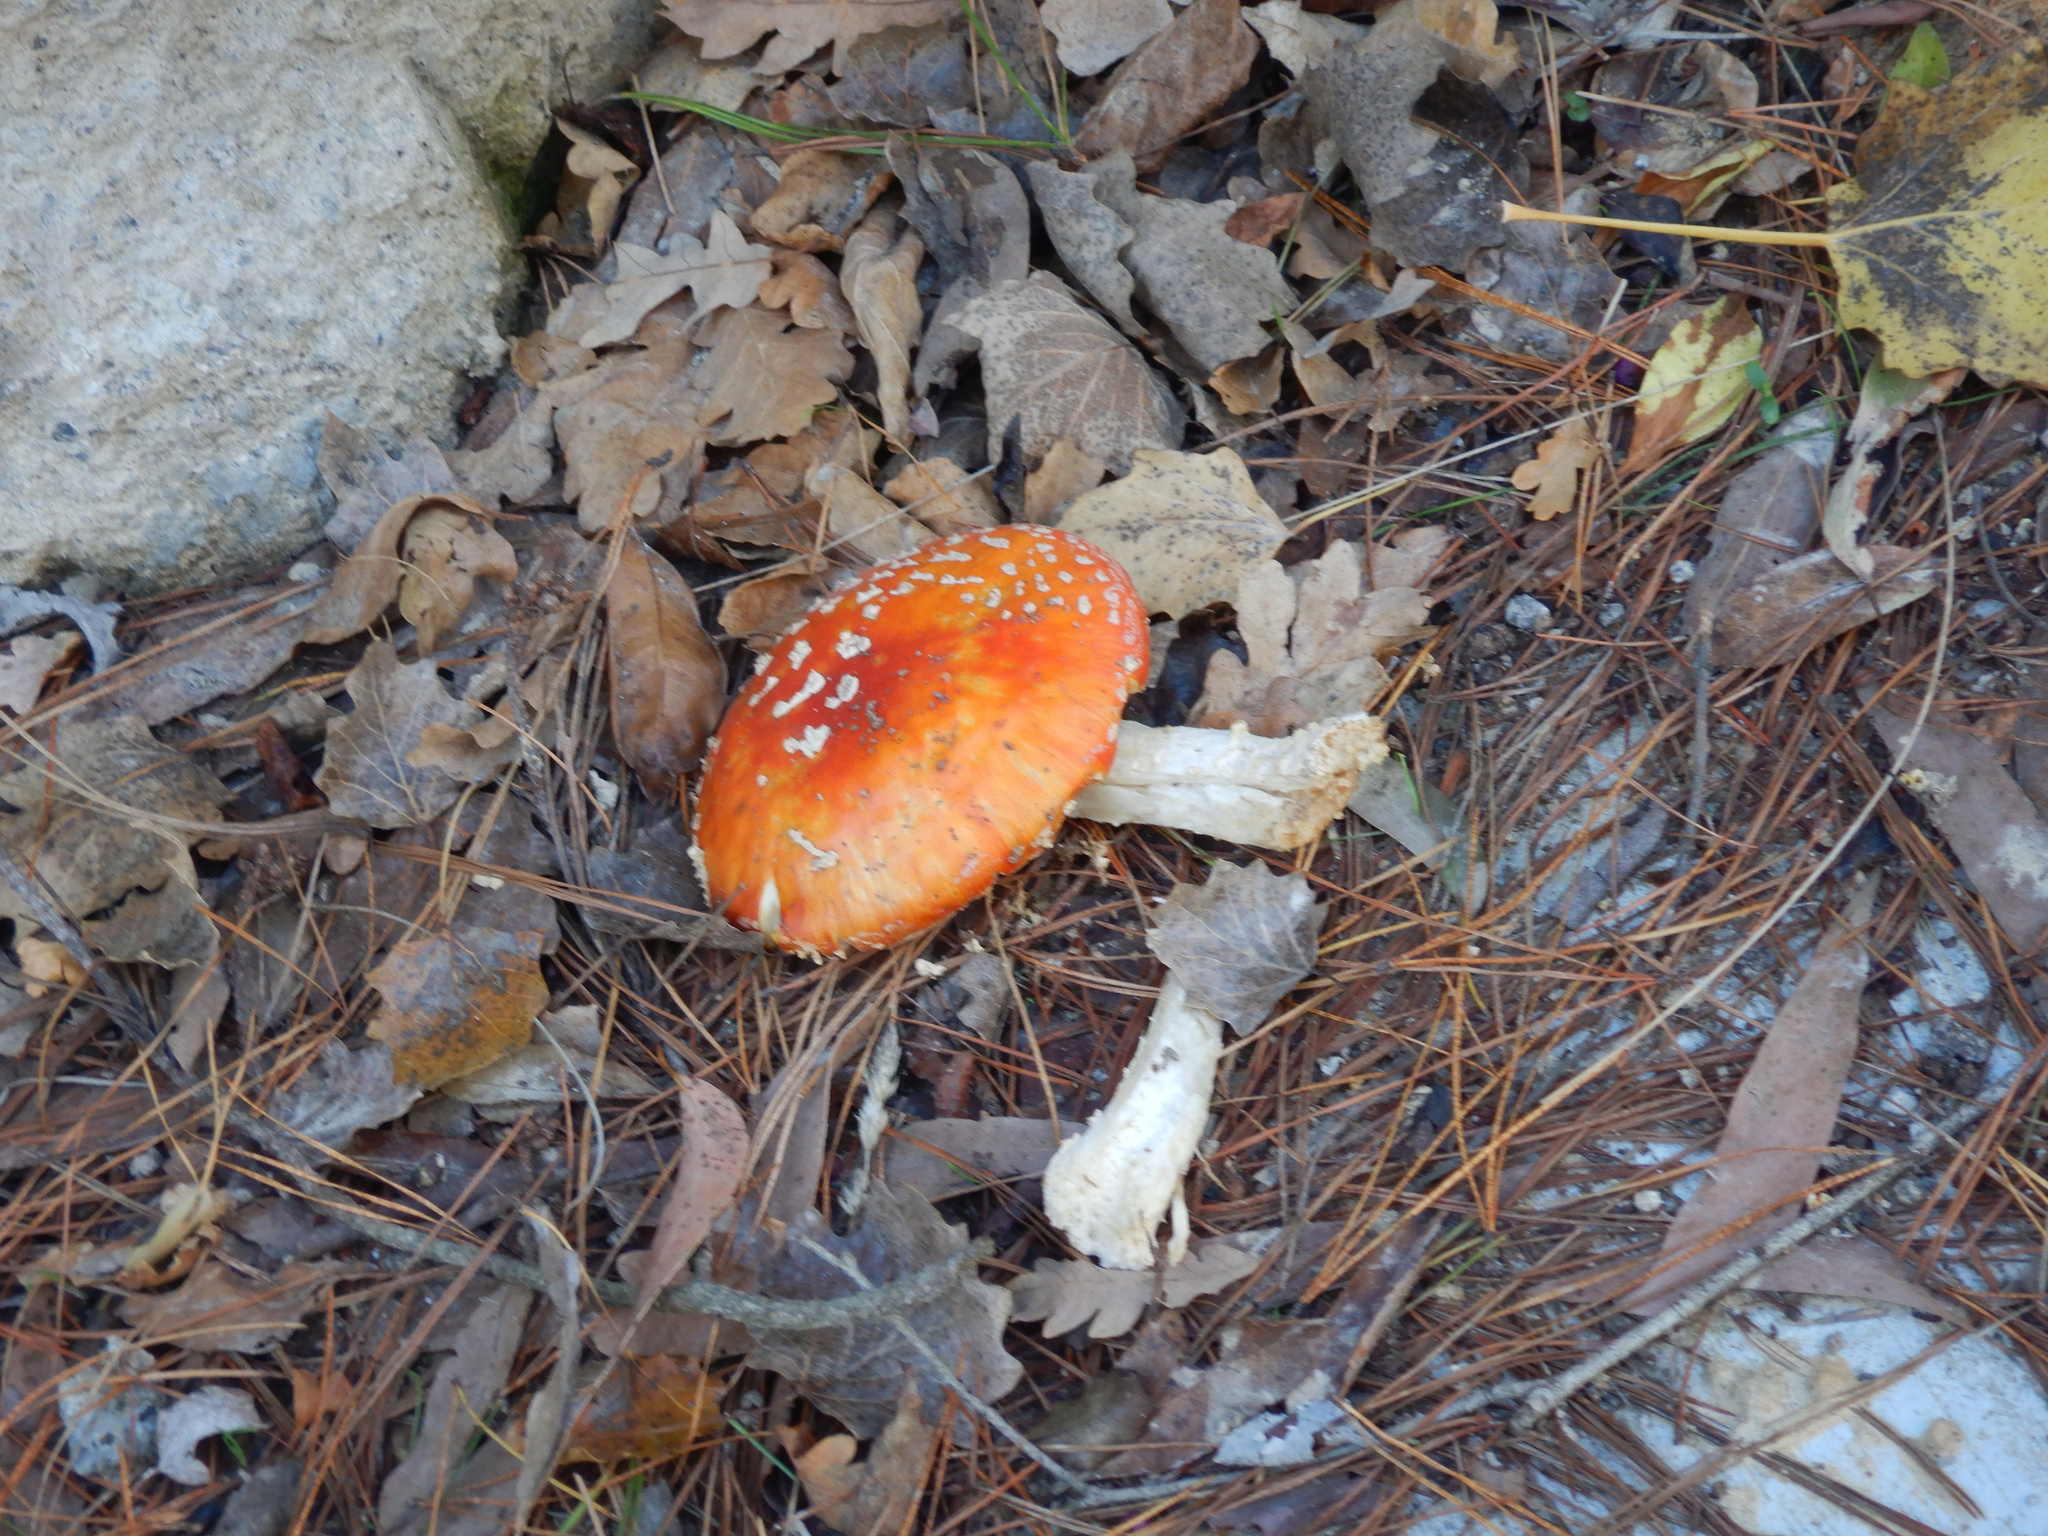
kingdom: Fungi
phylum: Basidiomycota
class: Agaricomycetes
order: Agaricales
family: Amanitaceae
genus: Amanita
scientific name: Amanita muscaria
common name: Fly agaric
